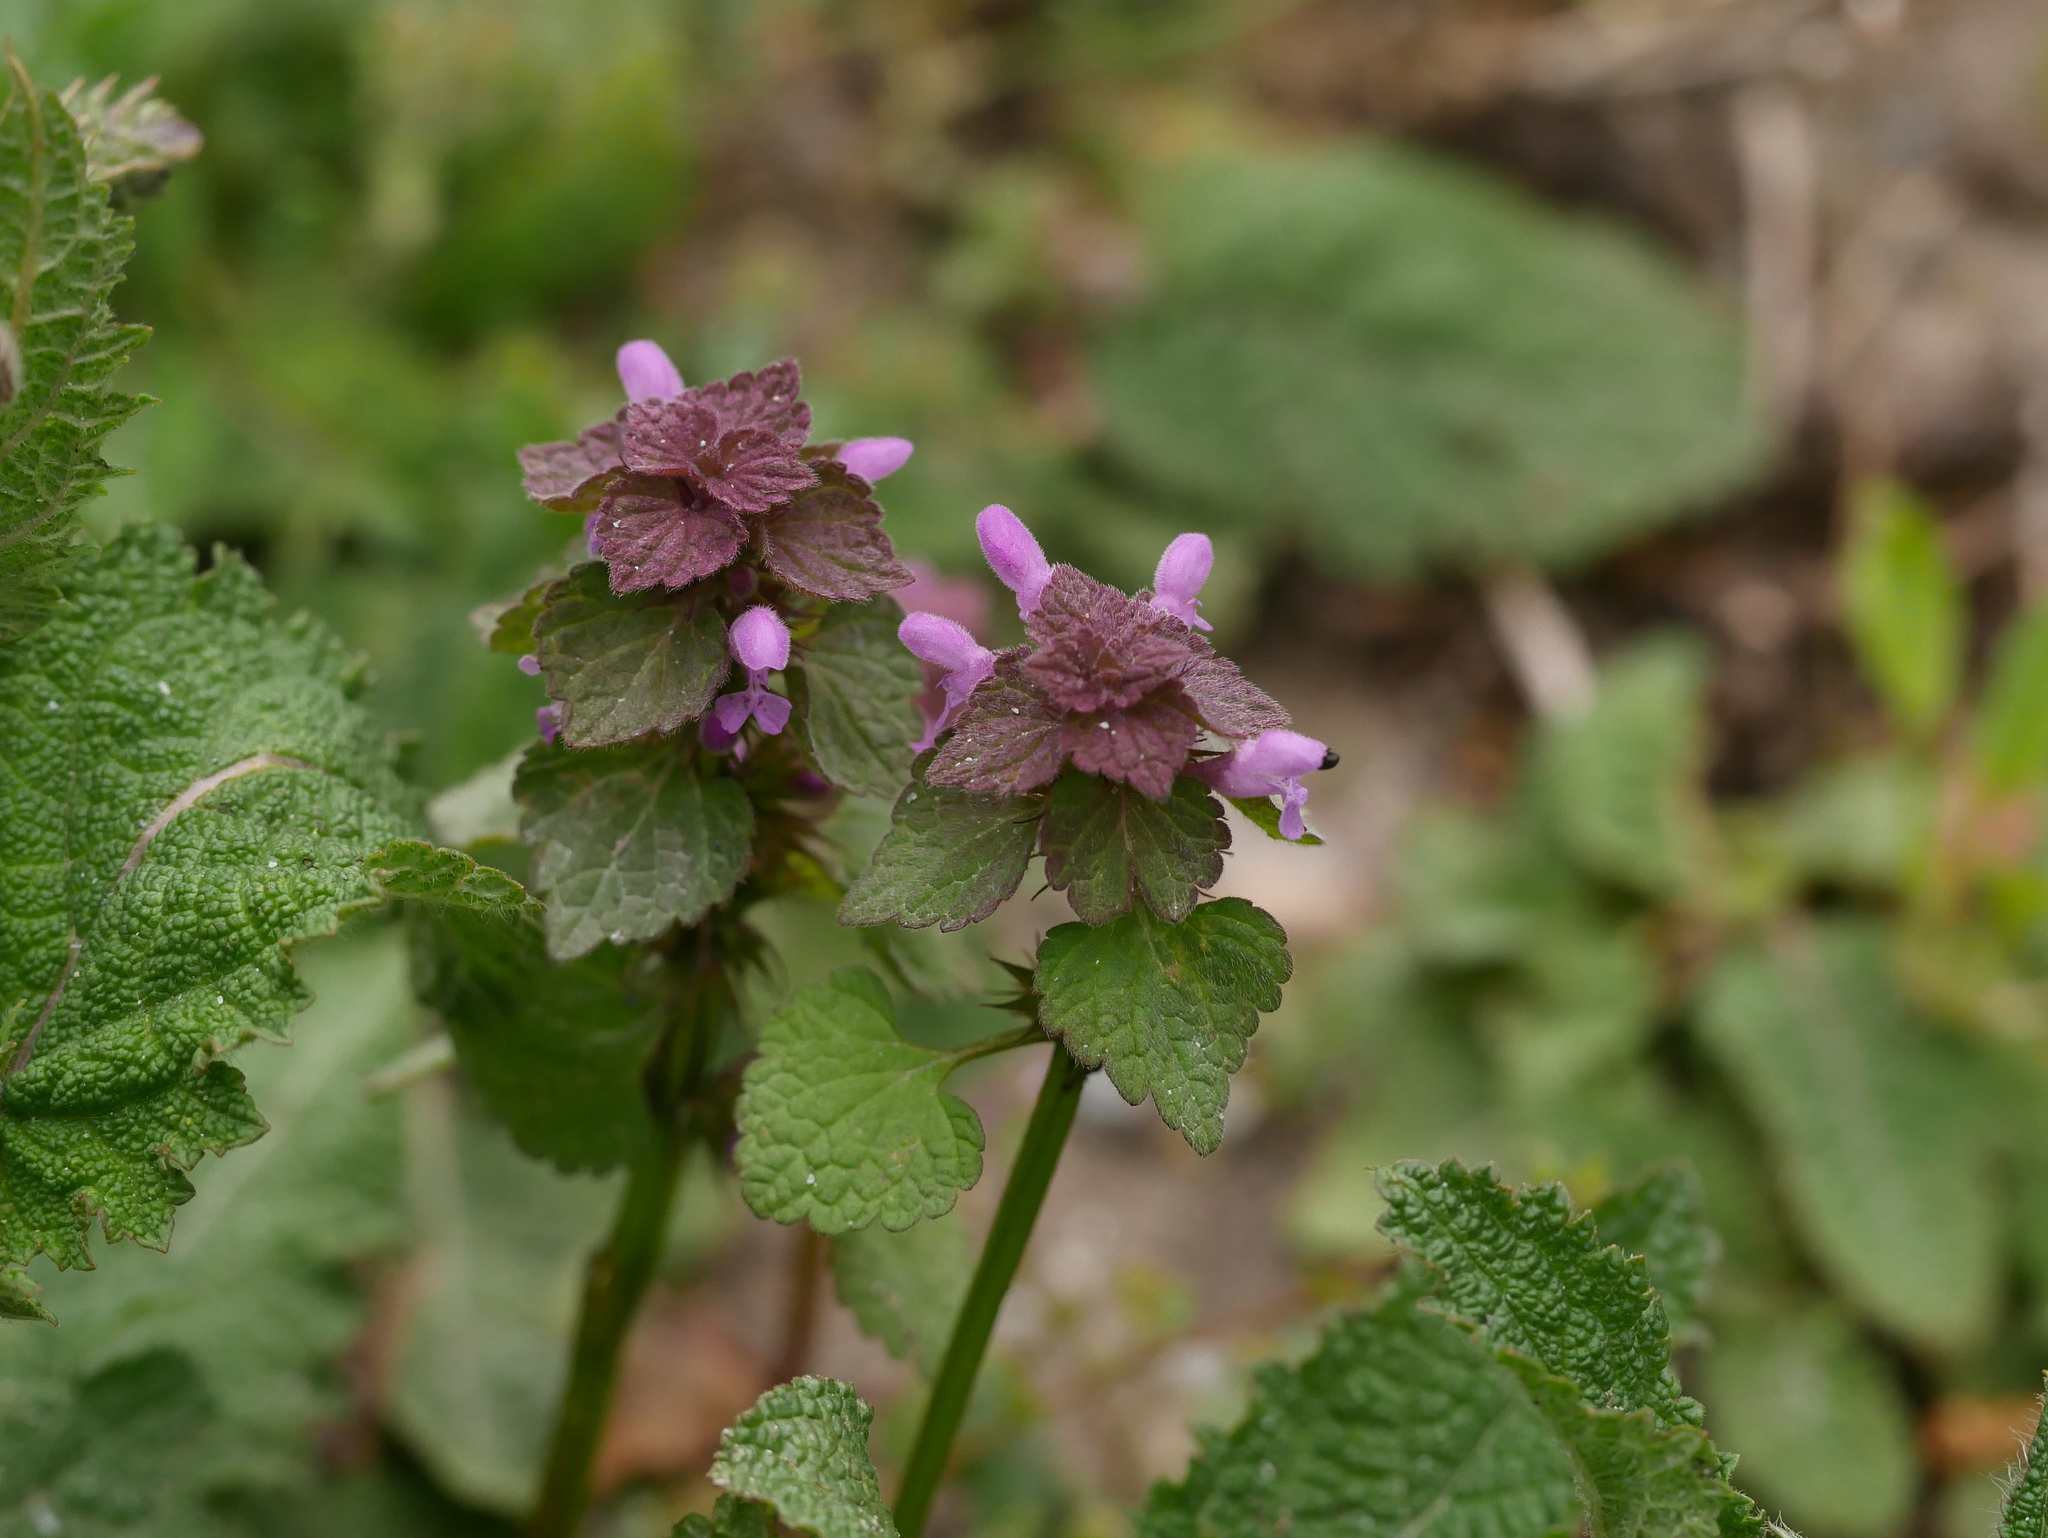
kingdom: Plantae
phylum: Tracheophyta
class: Magnoliopsida
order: Lamiales
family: Lamiaceae
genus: Lamium
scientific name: Lamium purpureum
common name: Red dead-nettle
